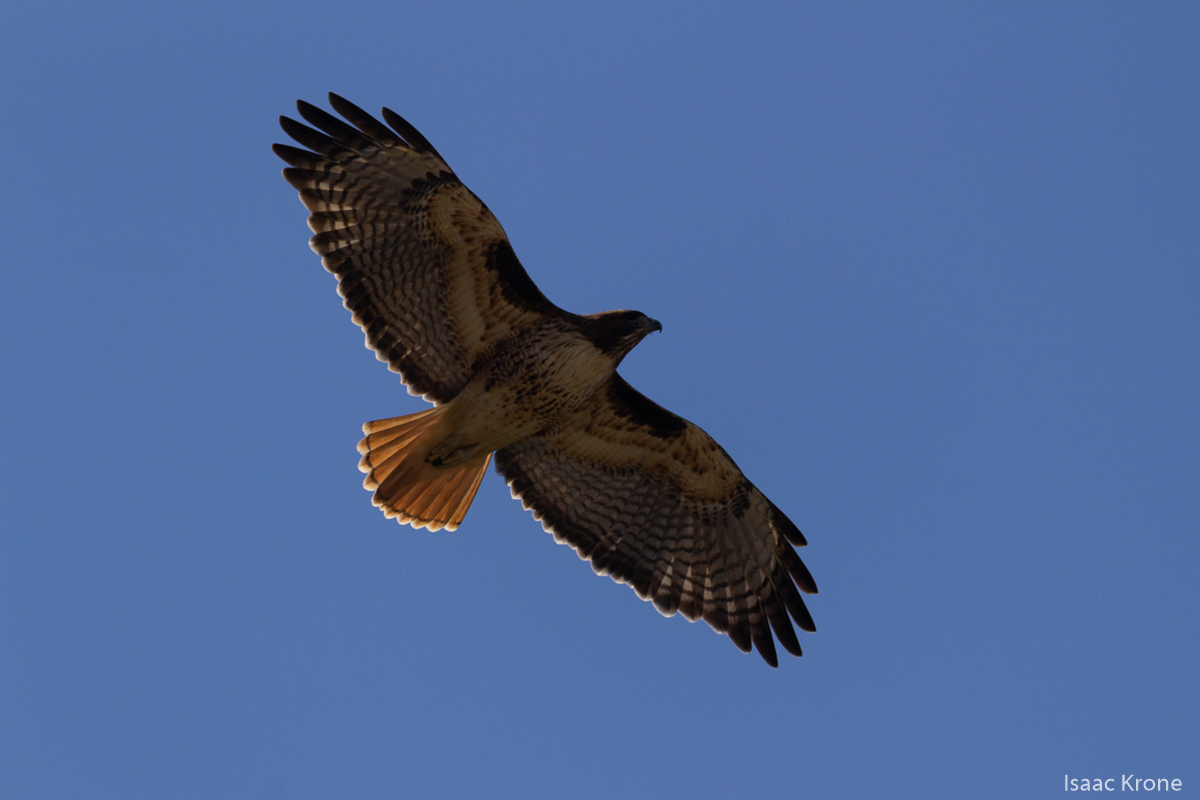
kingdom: Animalia
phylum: Chordata
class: Aves
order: Accipitriformes
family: Accipitridae
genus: Buteo
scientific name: Buteo jamaicensis
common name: Red-tailed hawk
